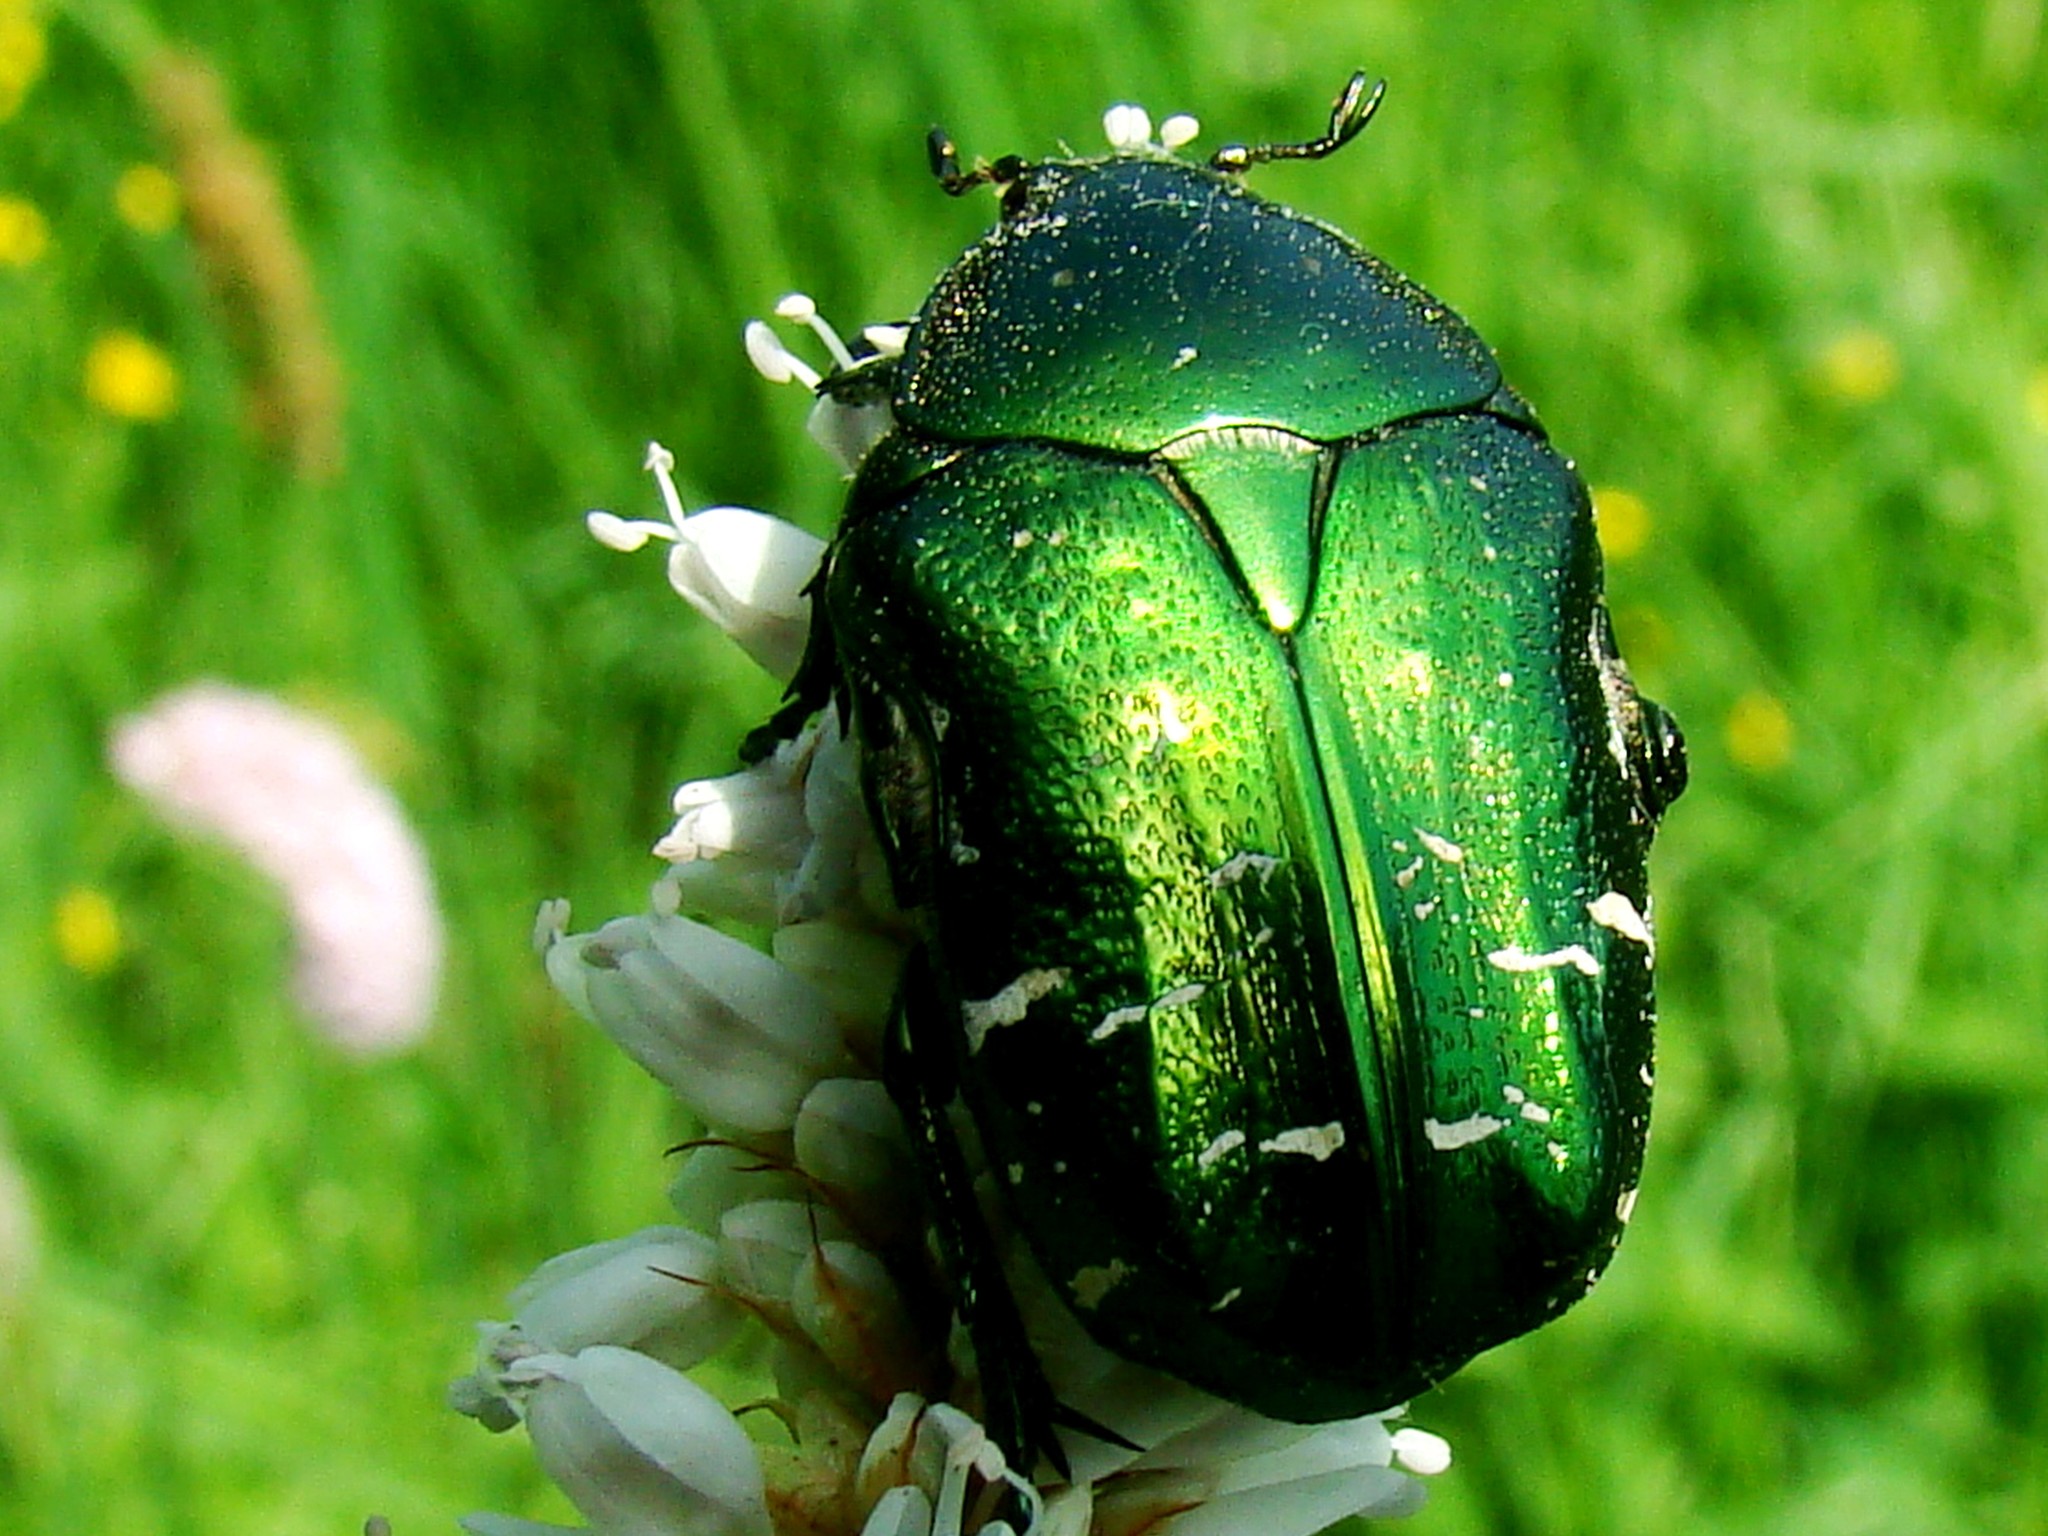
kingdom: Animalia
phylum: Arthropoda
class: Insecta
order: Coleoptera
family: Scarabaeidae
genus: Cetonia
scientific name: Cetonia aurata
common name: Rose chafer
